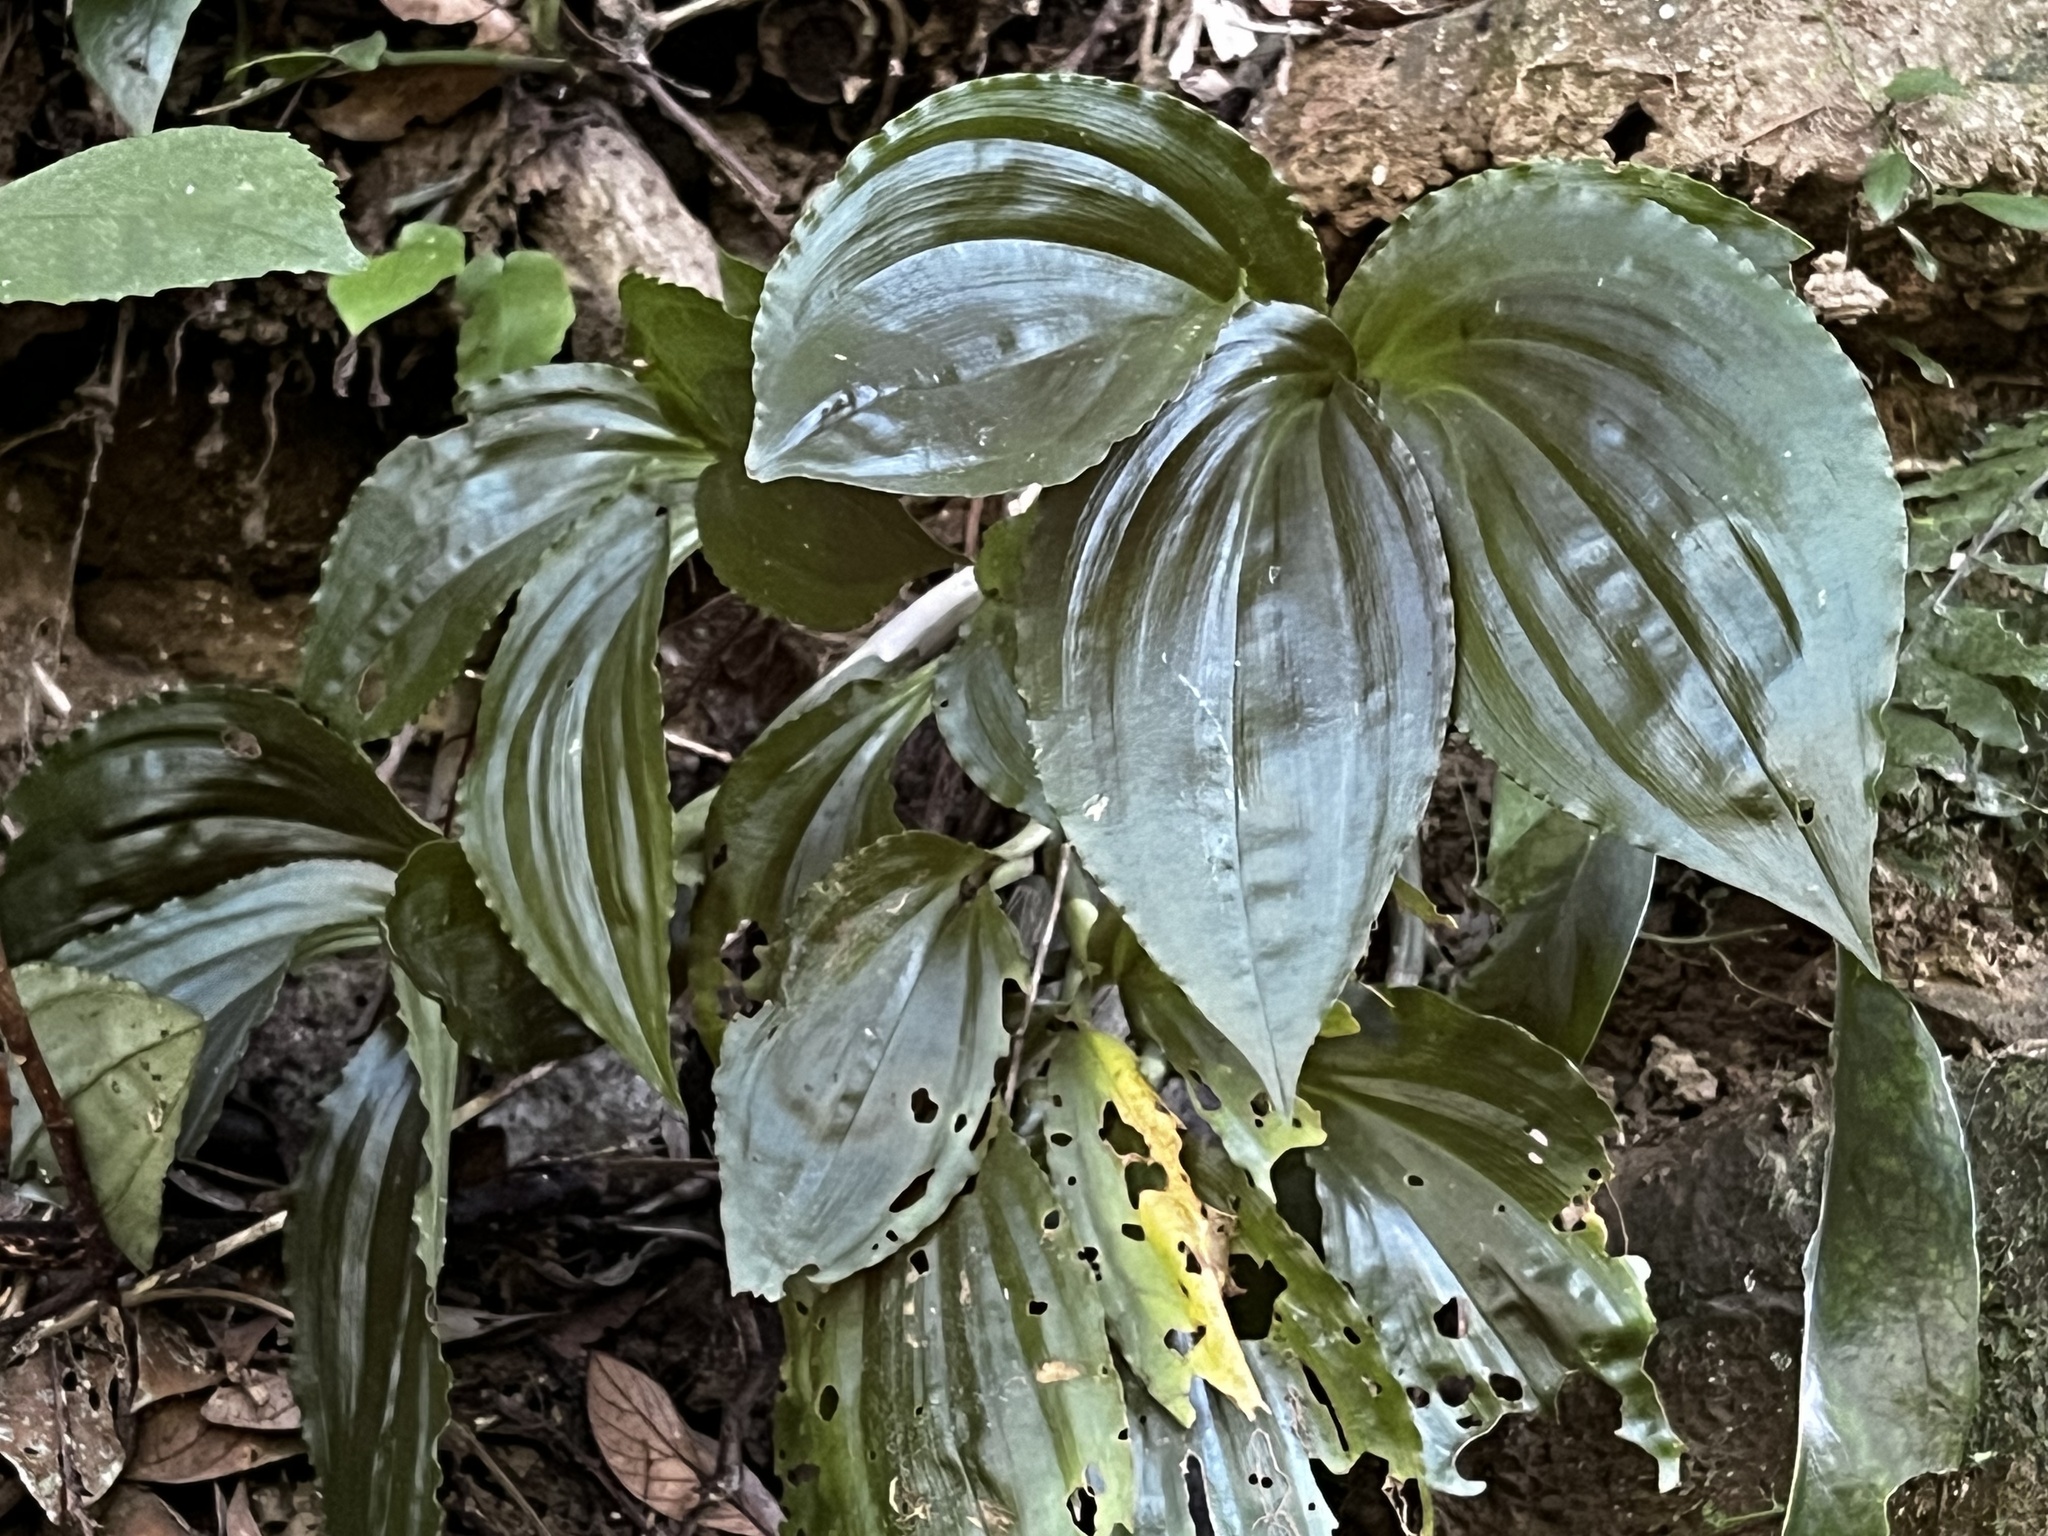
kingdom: Plantae
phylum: Tracheophyta
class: Liliopsida
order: Asparagales
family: Orchidaceae
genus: Liparis
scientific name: Liparis gigantea
